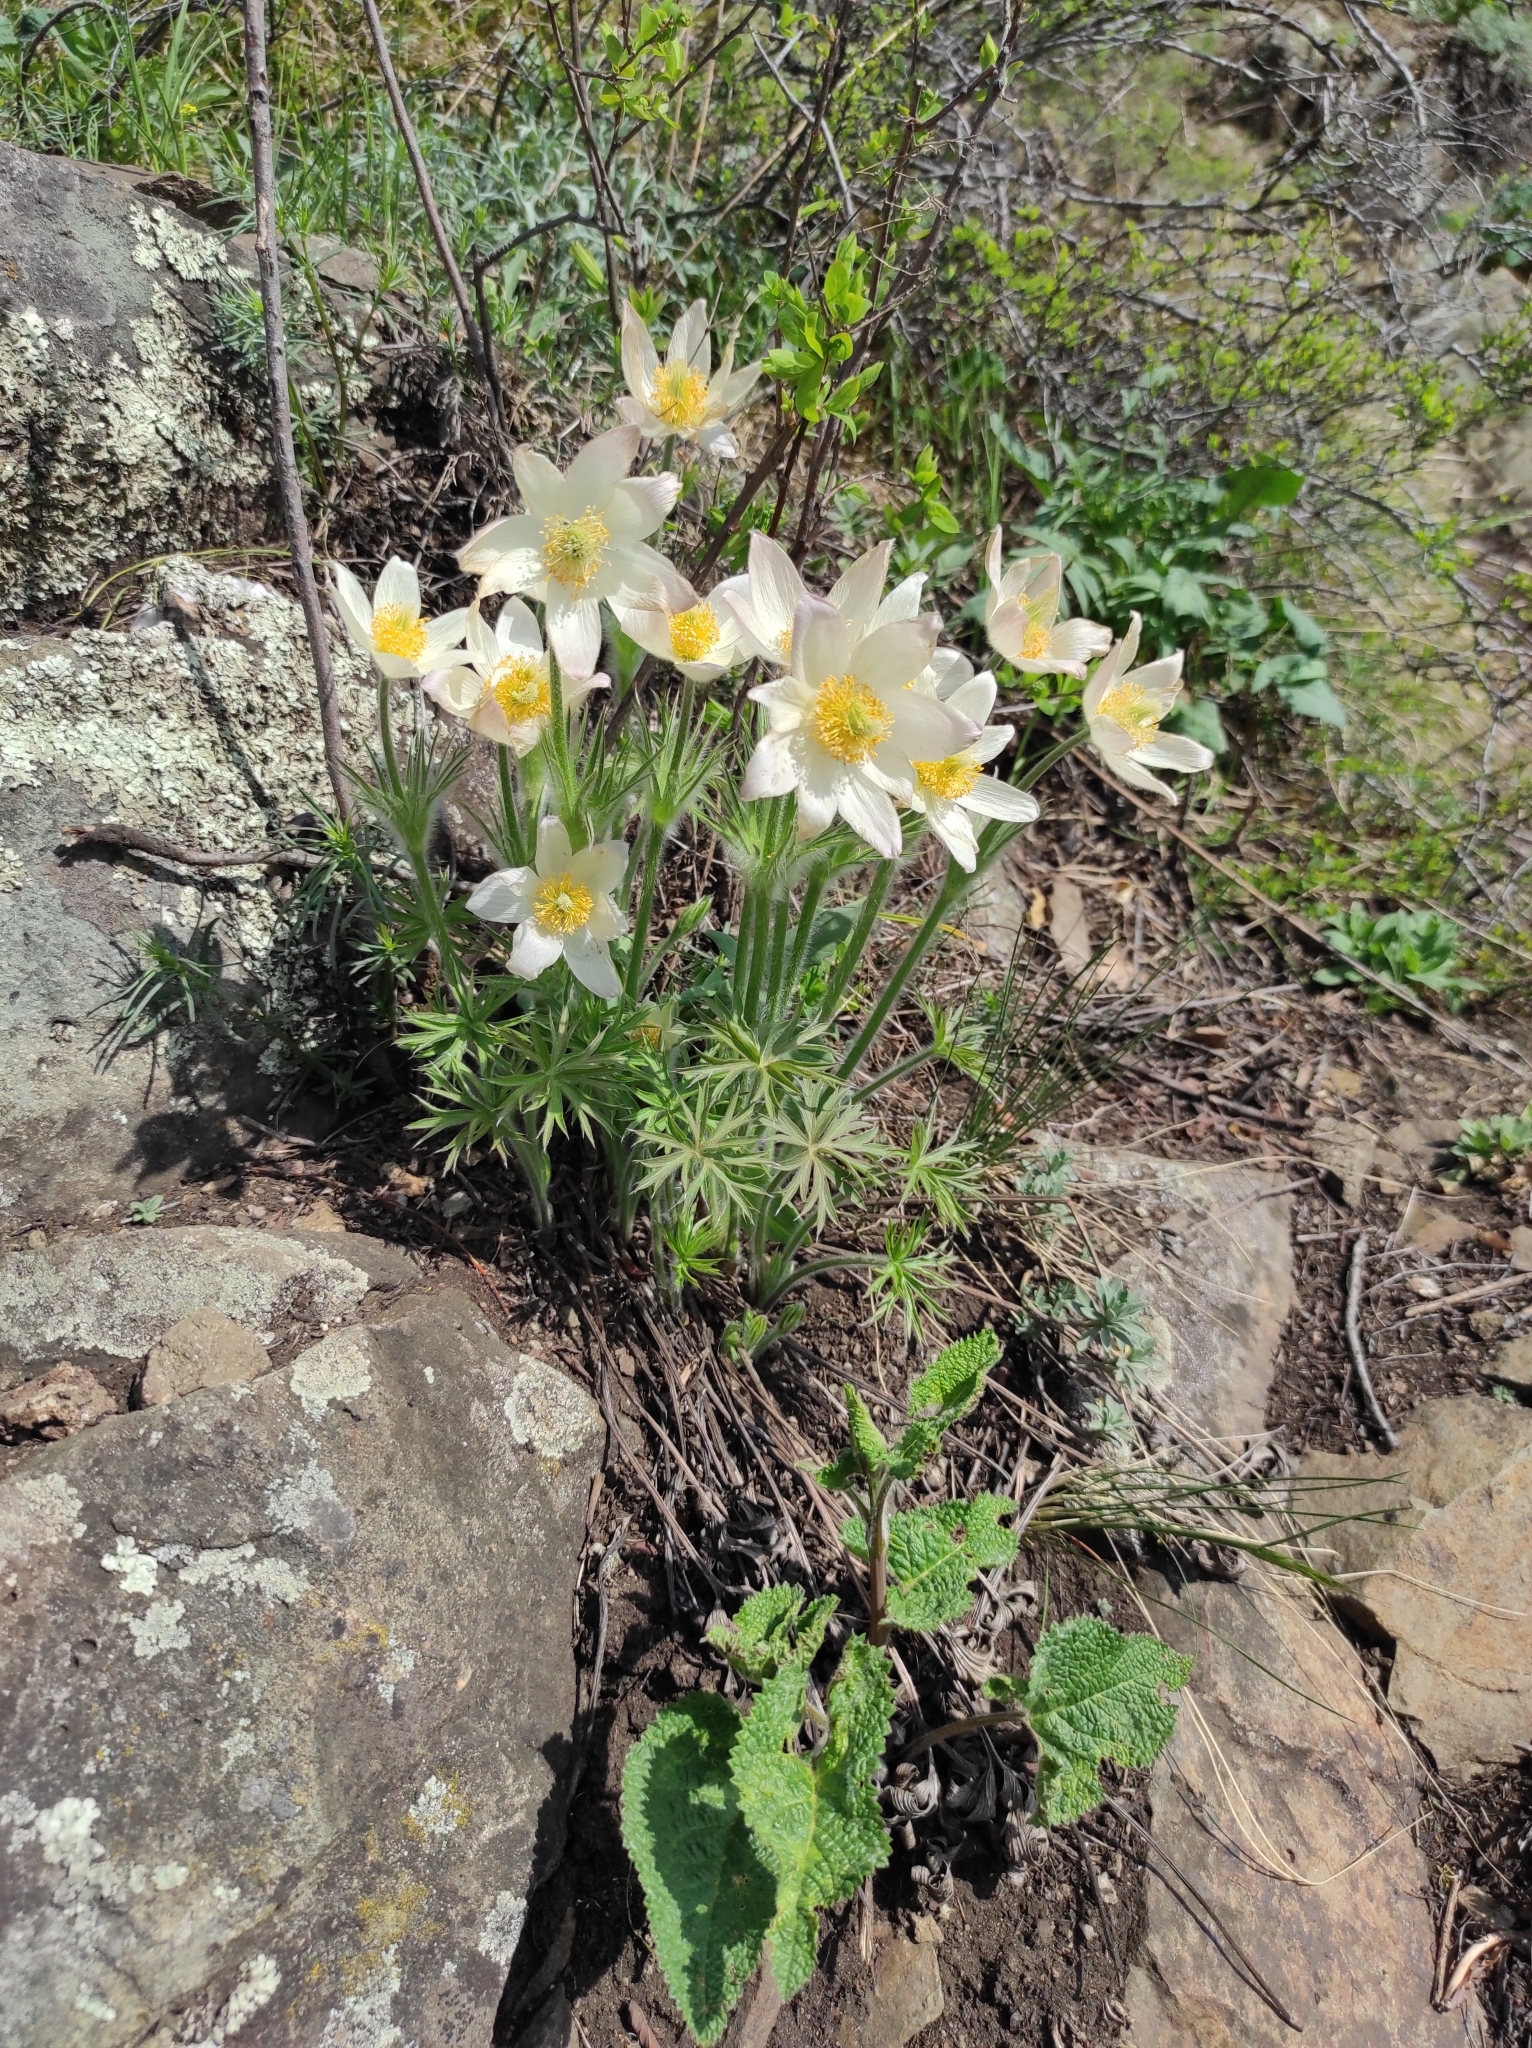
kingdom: Plantae
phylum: Tracheophyta
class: Magnoliopsida
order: Lamiales
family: Lamiaceae
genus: Phlomoides
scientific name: Phlomoides tuberosa
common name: Tuberous jerusalem sage
